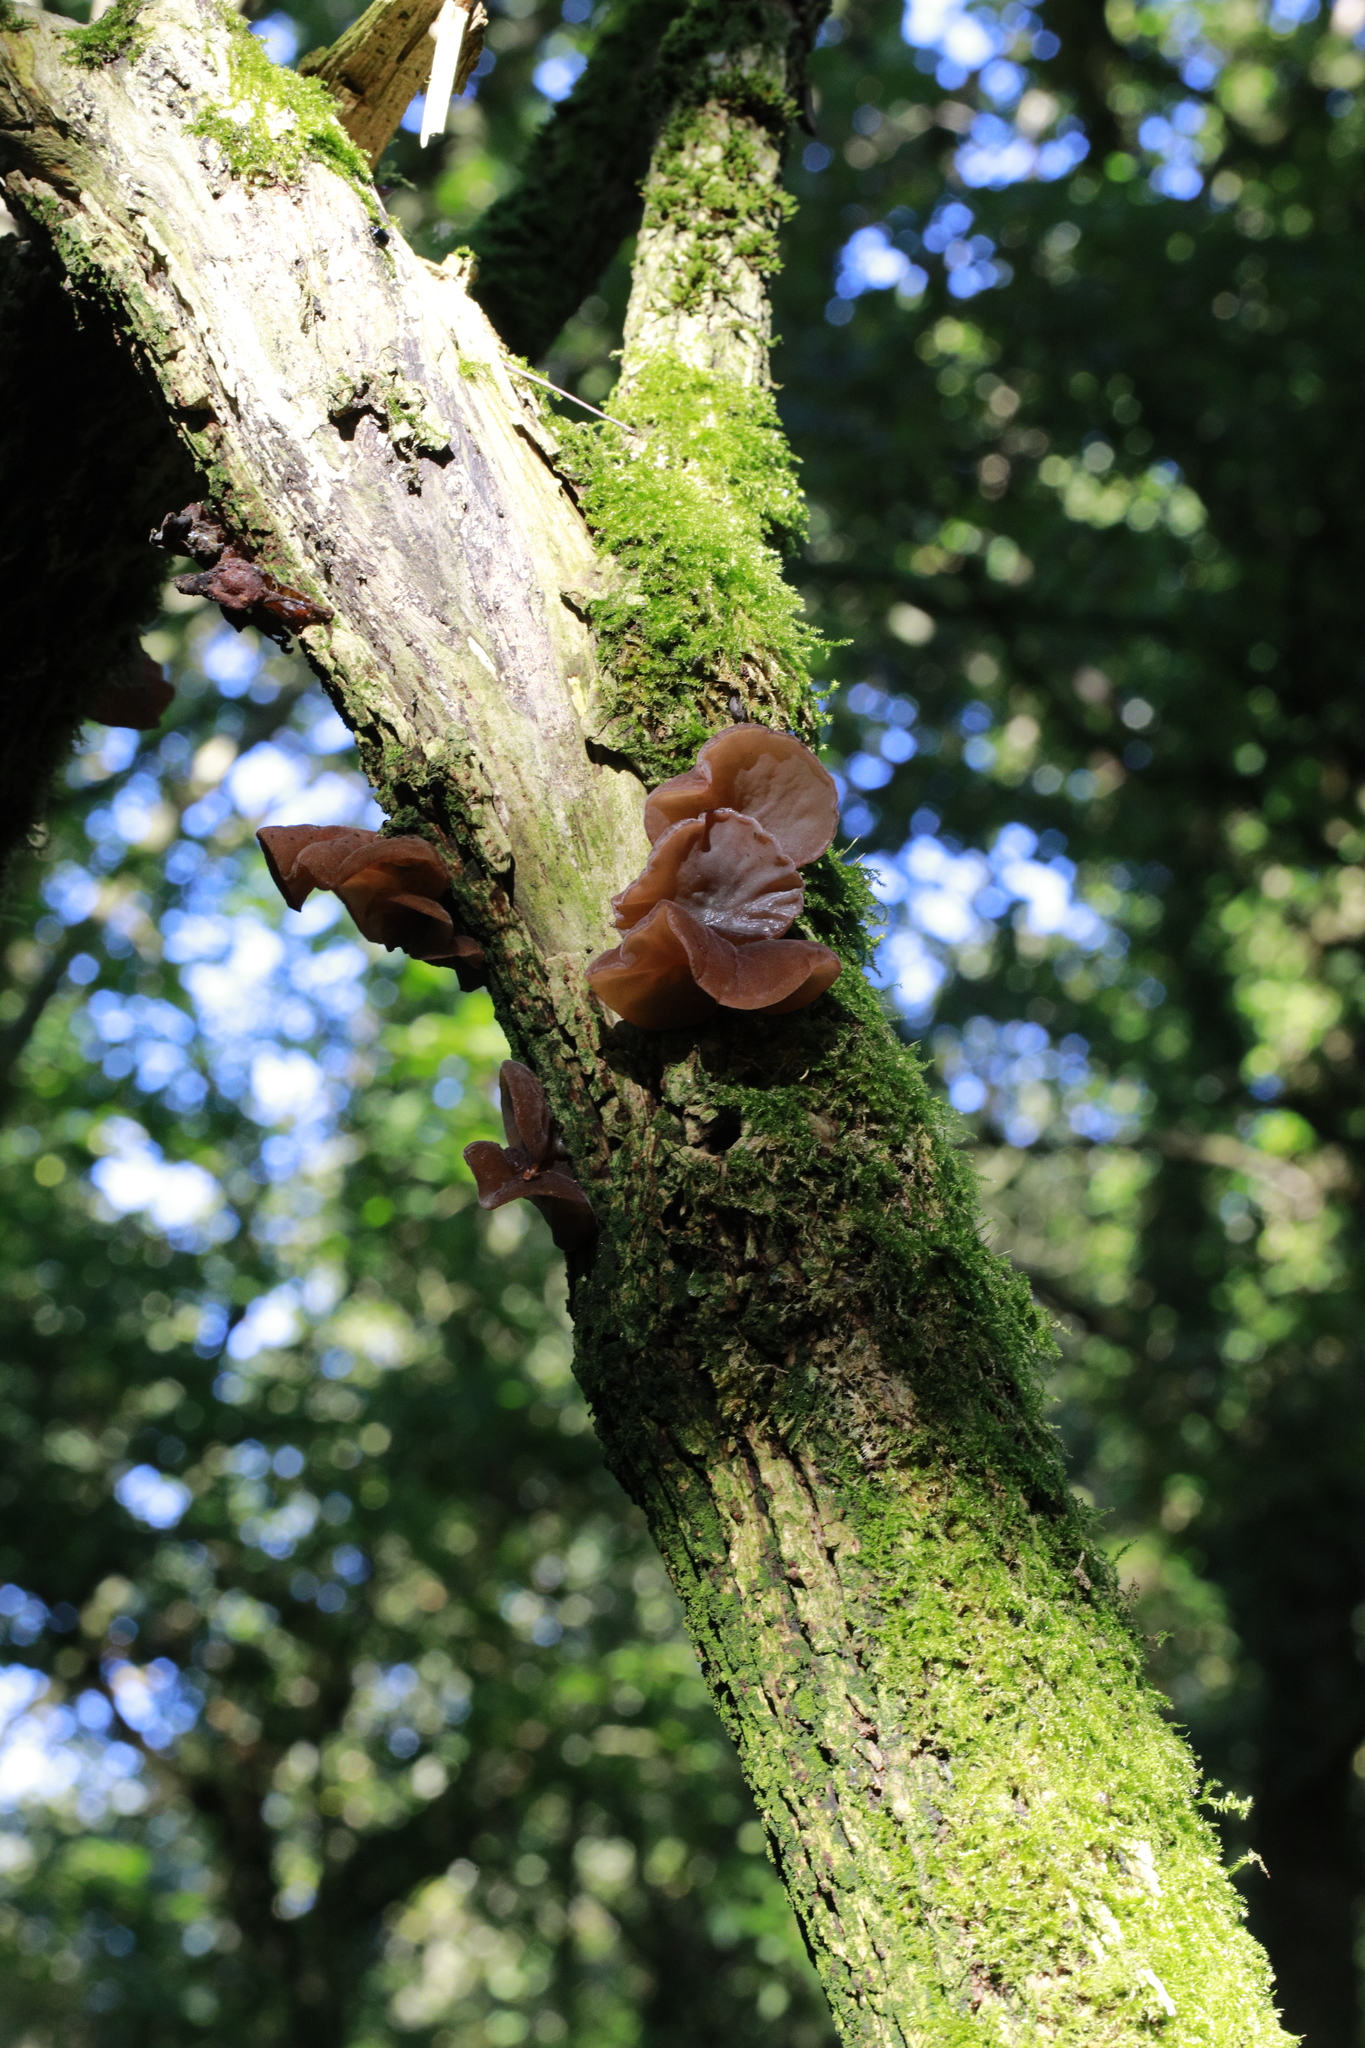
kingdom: Fungi
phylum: Basidiomycota
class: Agaricomycetes
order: Auriculariales
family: Auriculariaceae
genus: Auricularia
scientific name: Auricularia auricula-judae
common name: Jelly ear
